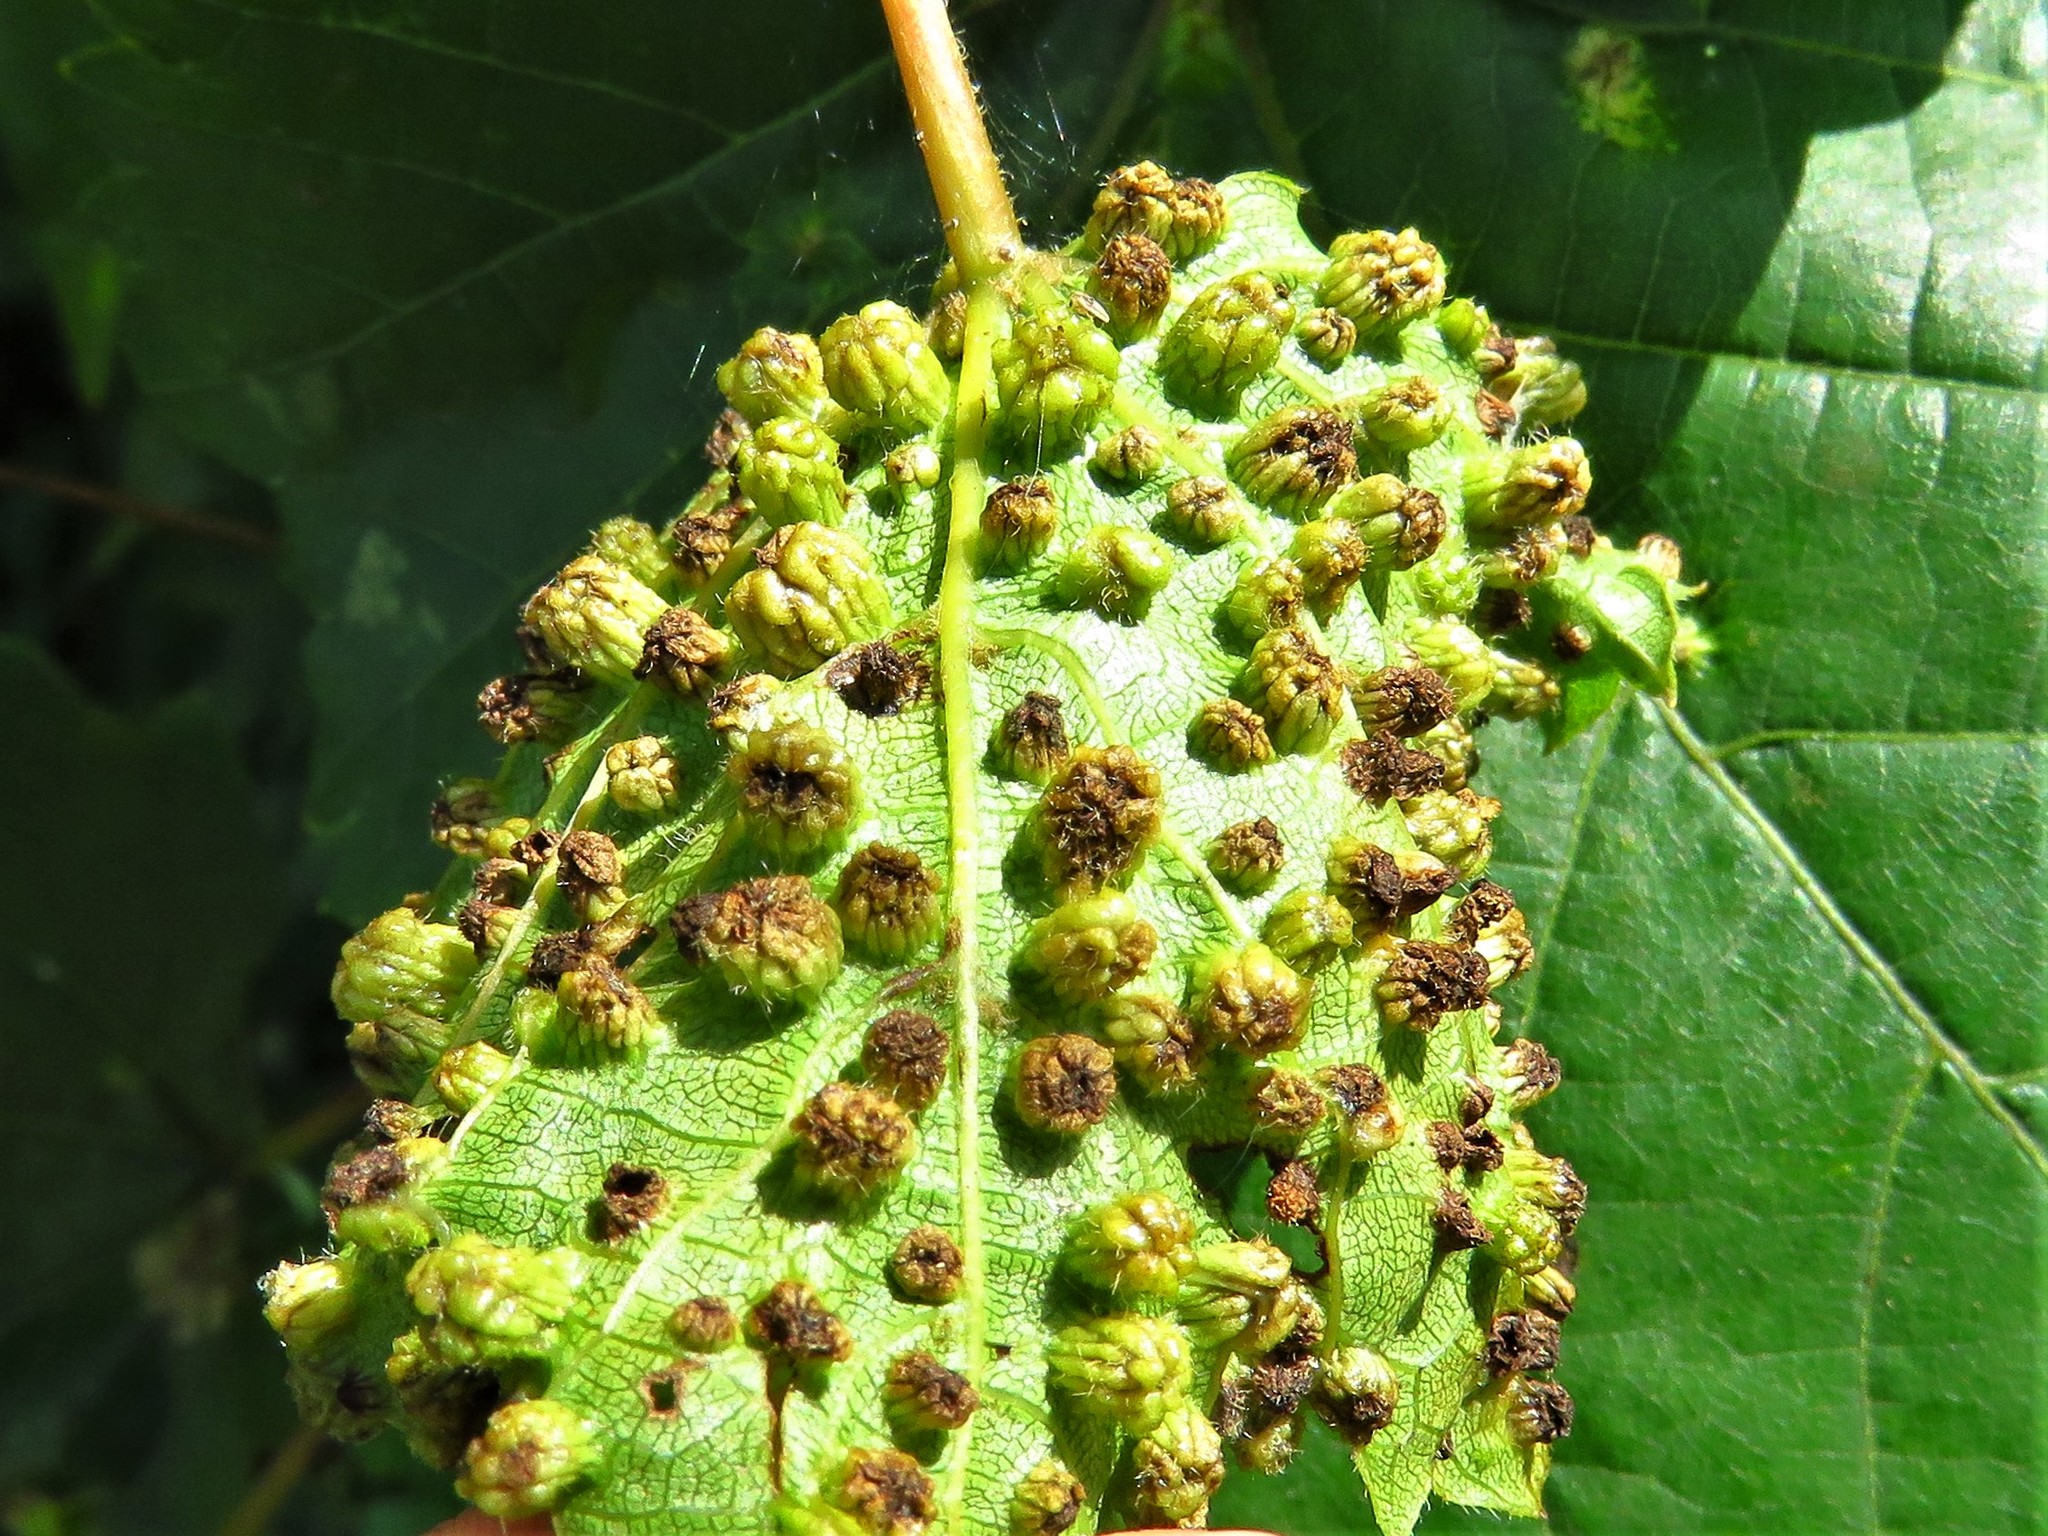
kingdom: Animalia
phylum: Arthropoda
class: Insecta
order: Hemiptera
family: Phylloxeridae
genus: Daktulosphaira
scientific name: Daktulosphaira vitifoliae
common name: Grape phylloxera
